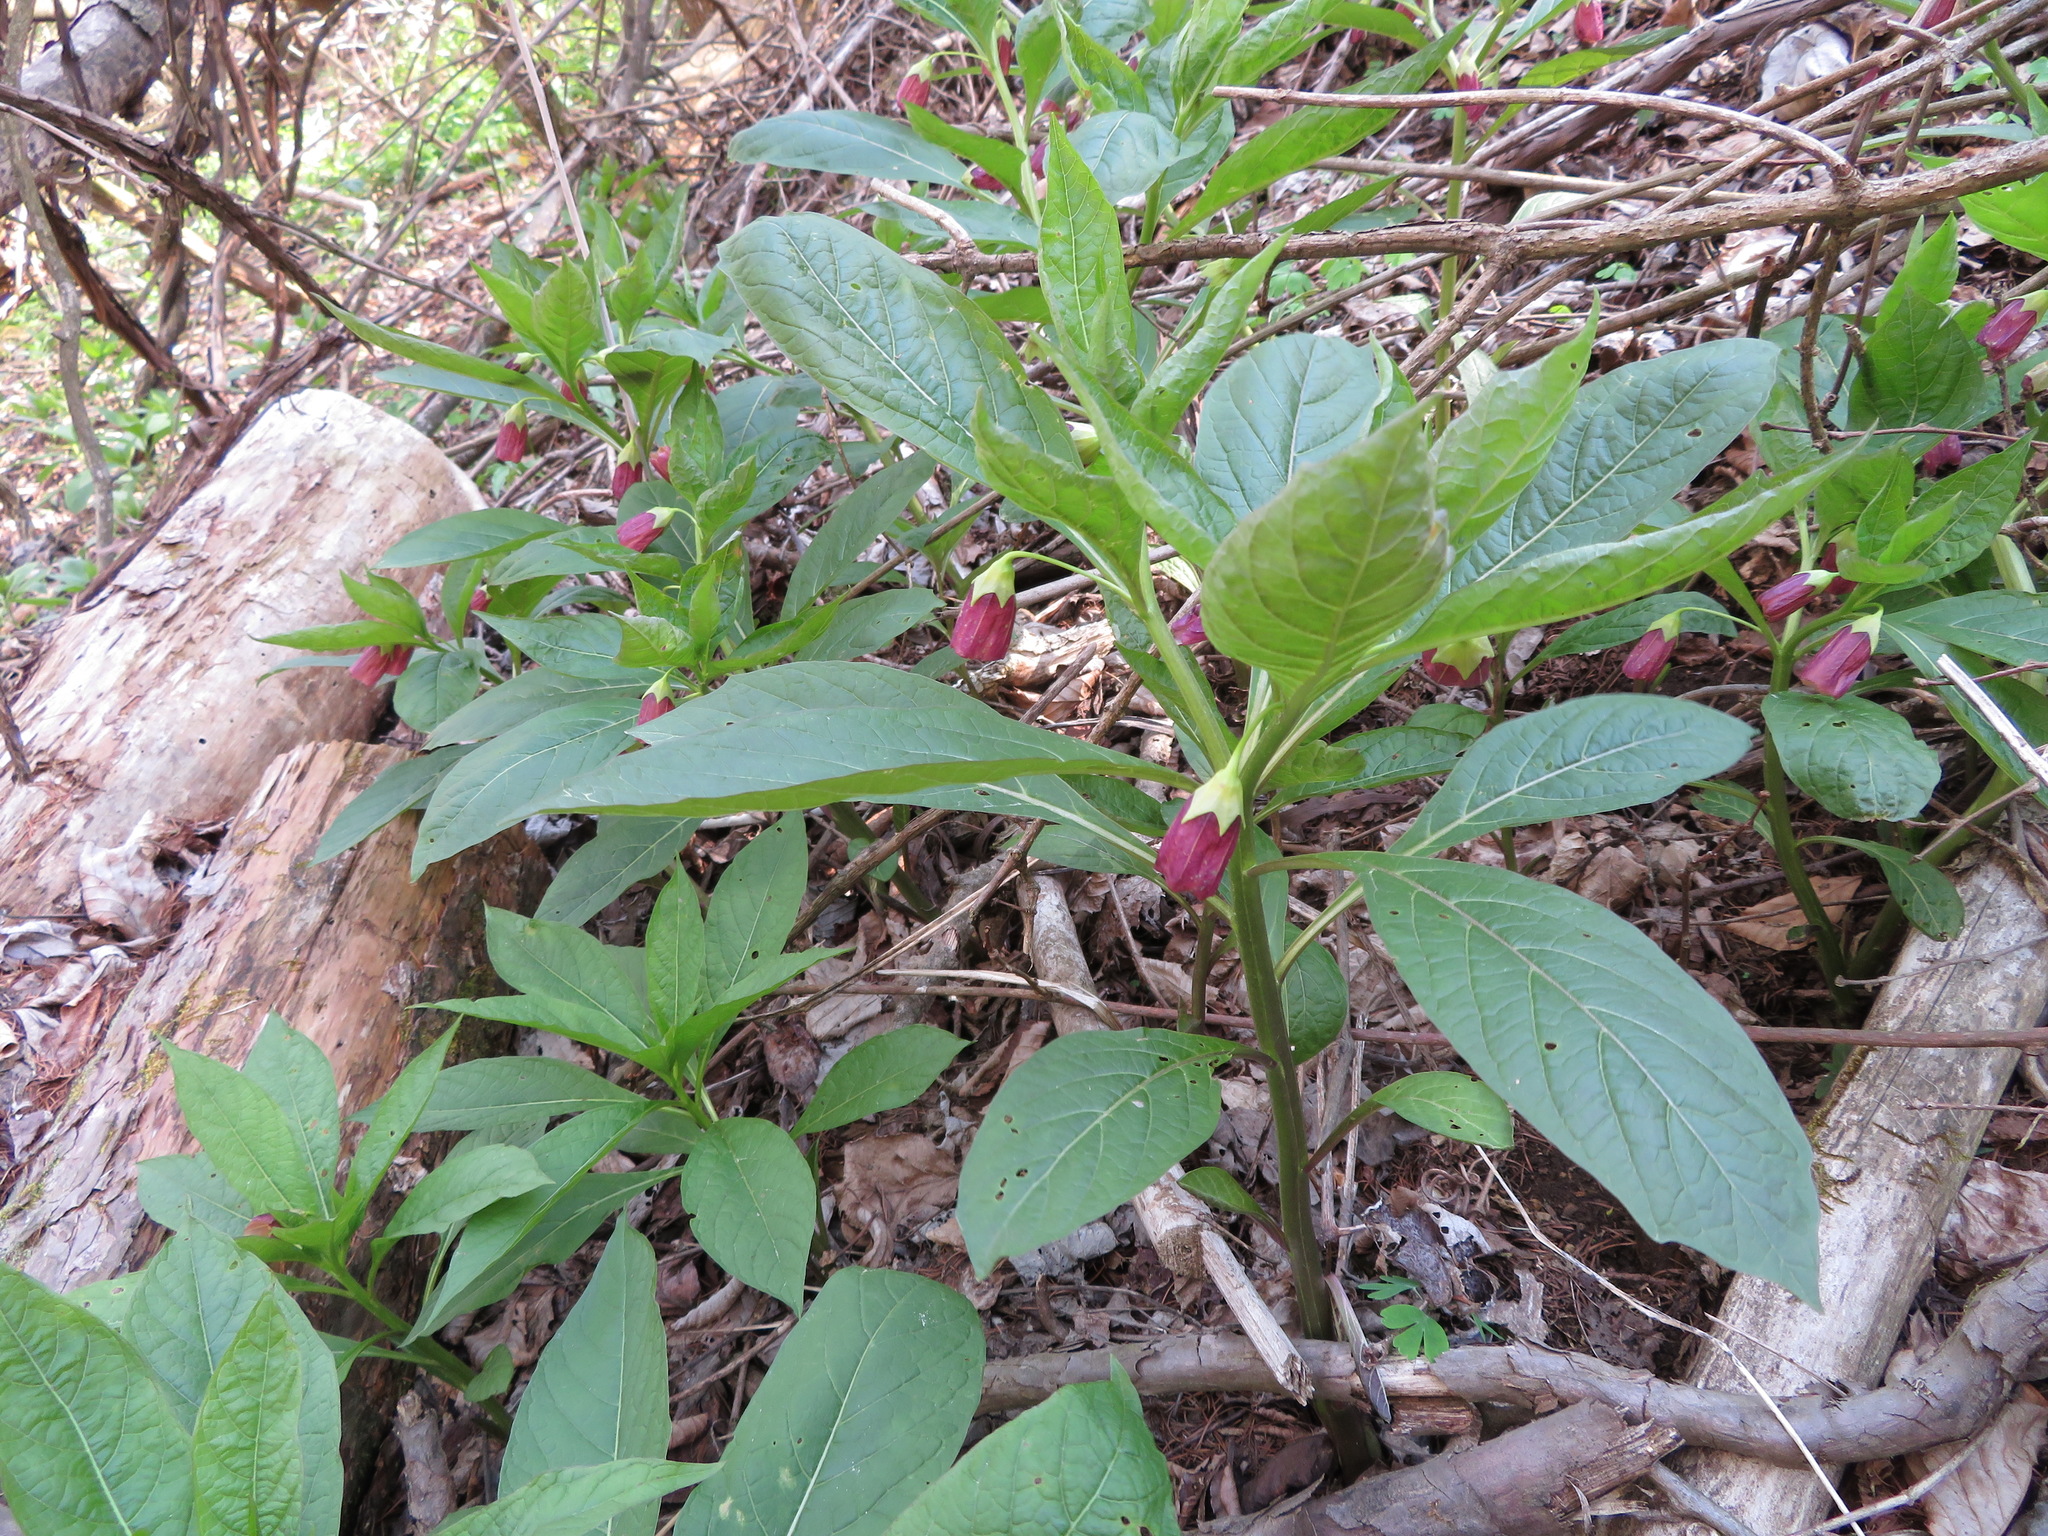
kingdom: Plantae
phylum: Tracheophyta
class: Magnoliopsida
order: Solanales
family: Solanaceae
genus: Scopolia
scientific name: Scopolia japonica
